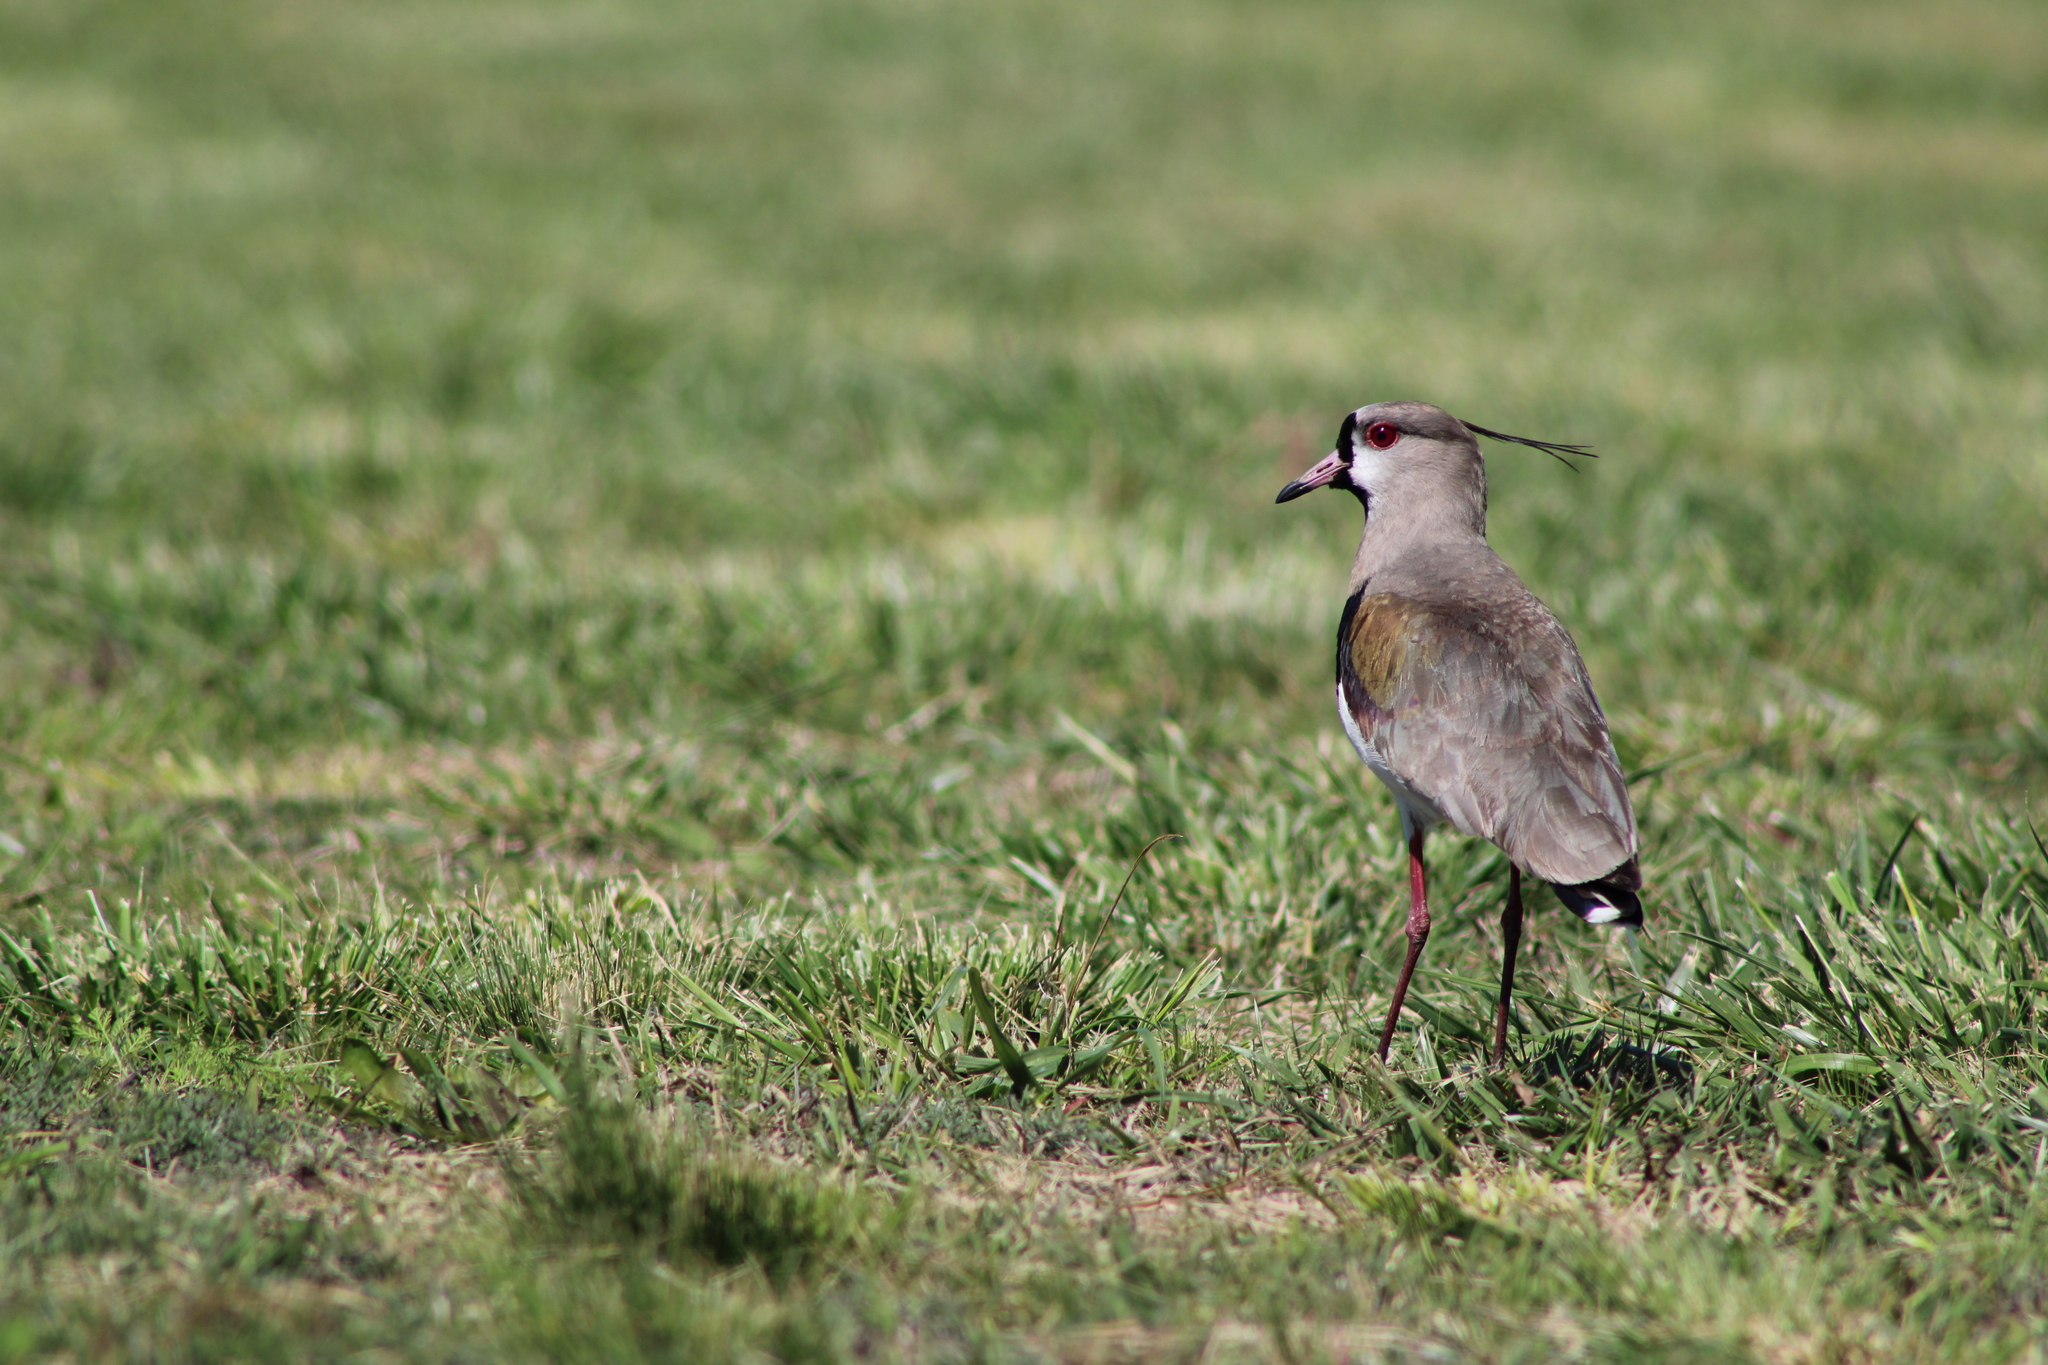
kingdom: Animalia
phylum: Chordata
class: Aves
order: Charadriiformes
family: Charadriidae
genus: Vanellus
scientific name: Vanellus chilensis
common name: Southern lapwing
